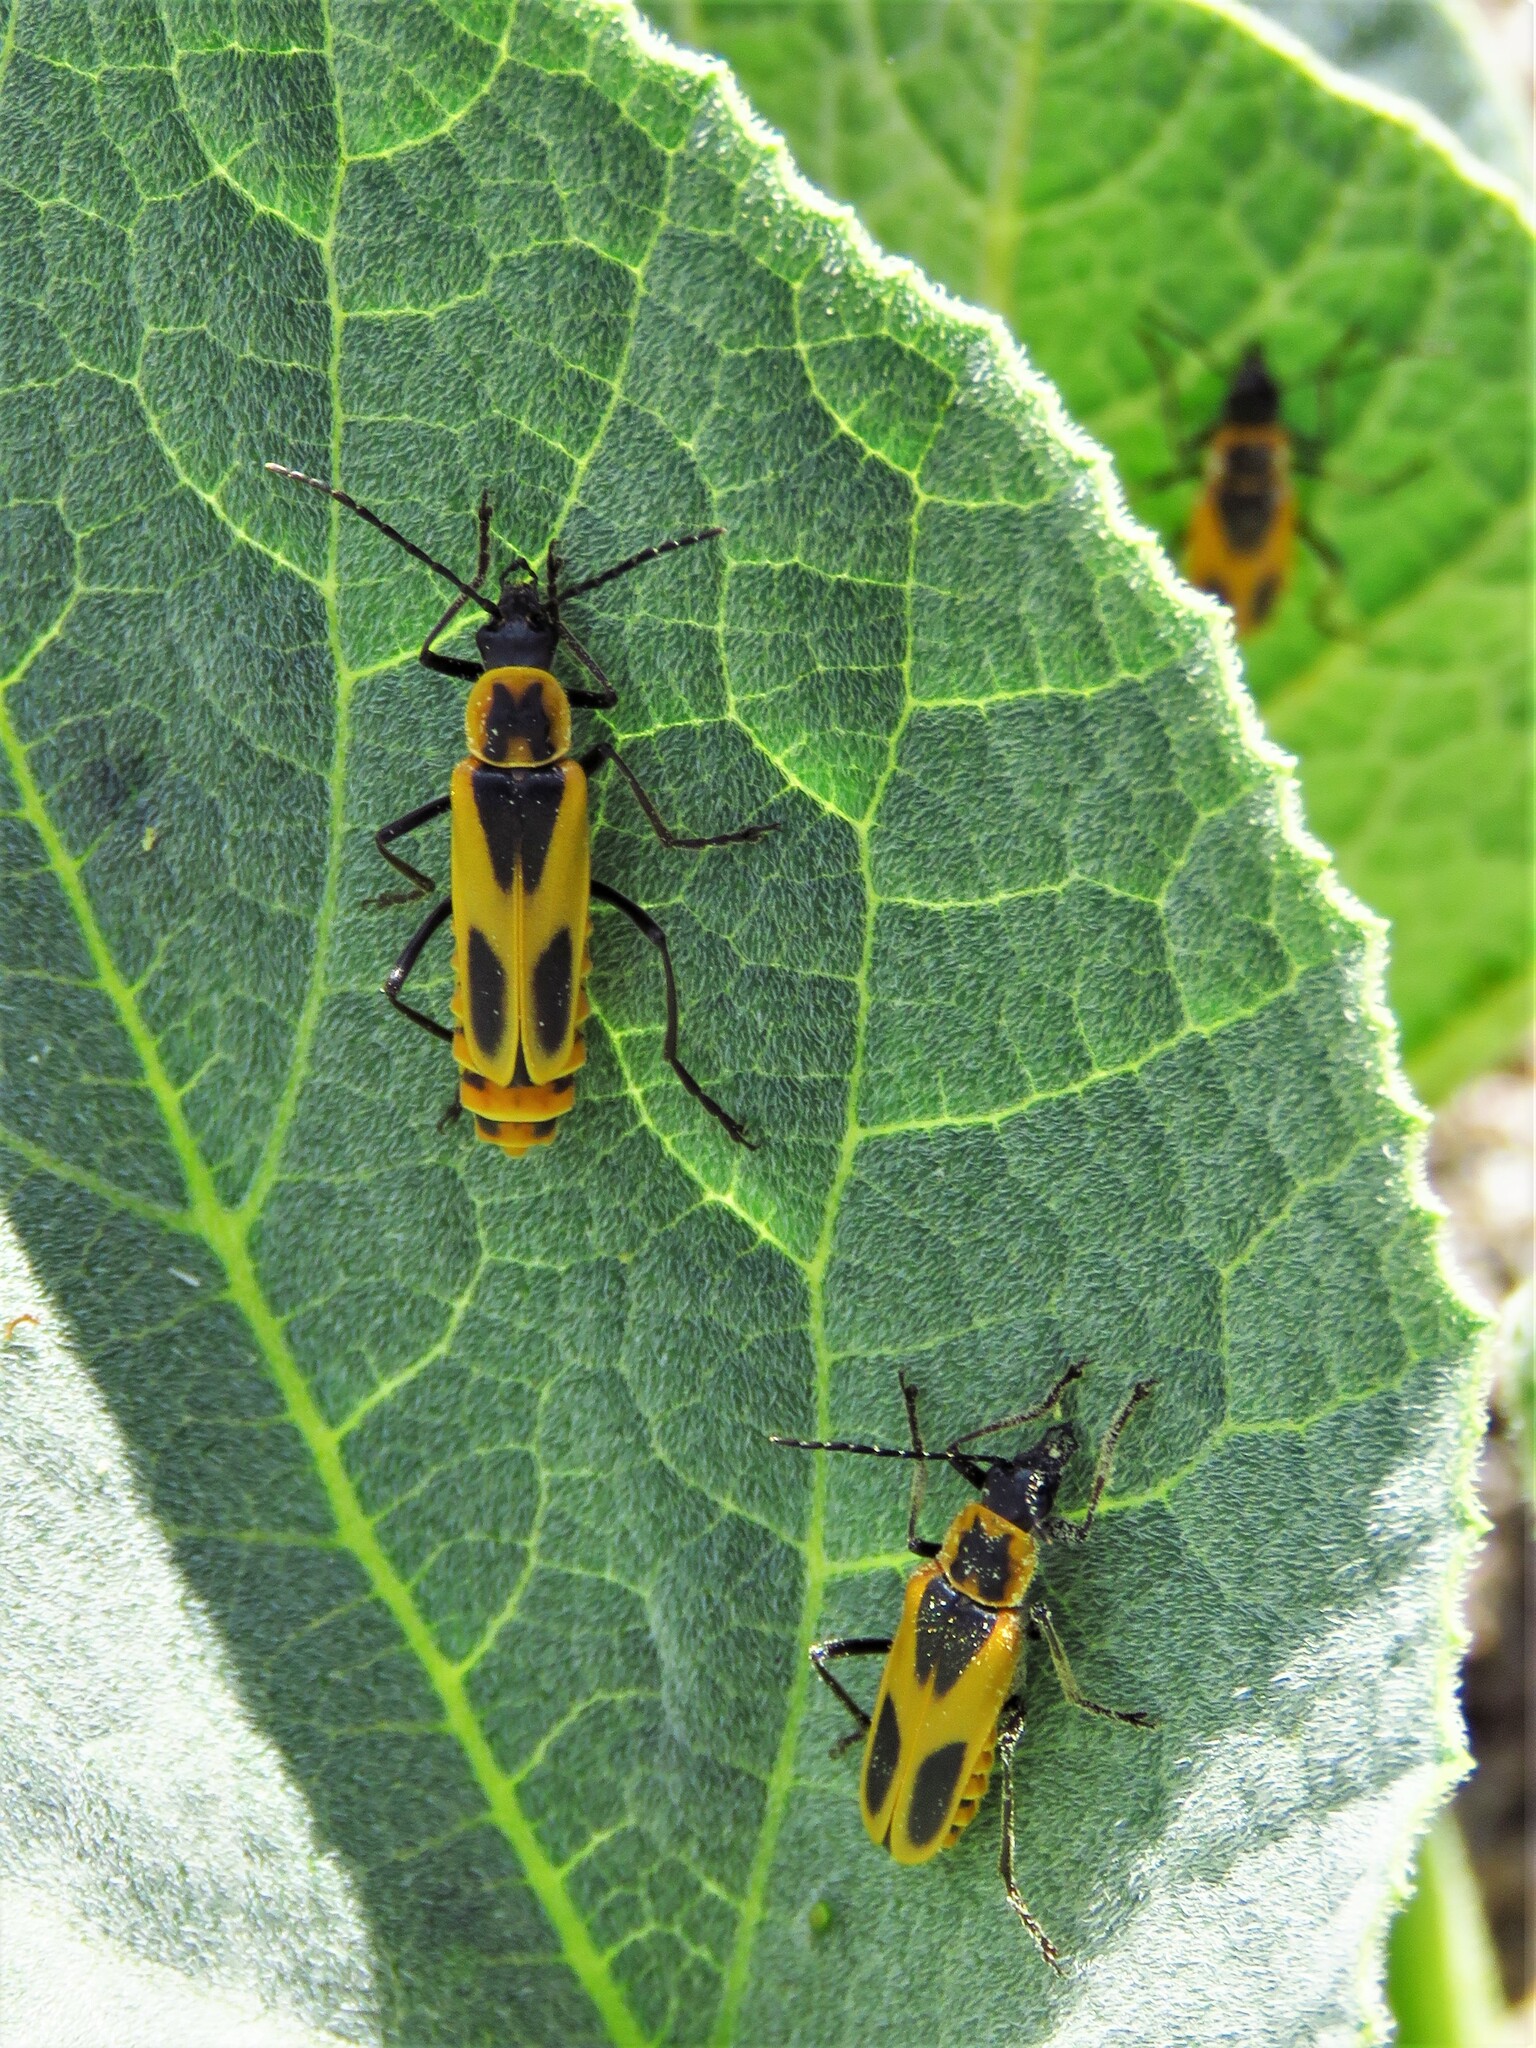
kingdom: Animalia
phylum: Arthropoda
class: Insecta
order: Coleoptera
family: Cantharidae
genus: Chauliognathus
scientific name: Chauliognathus scutellaris
